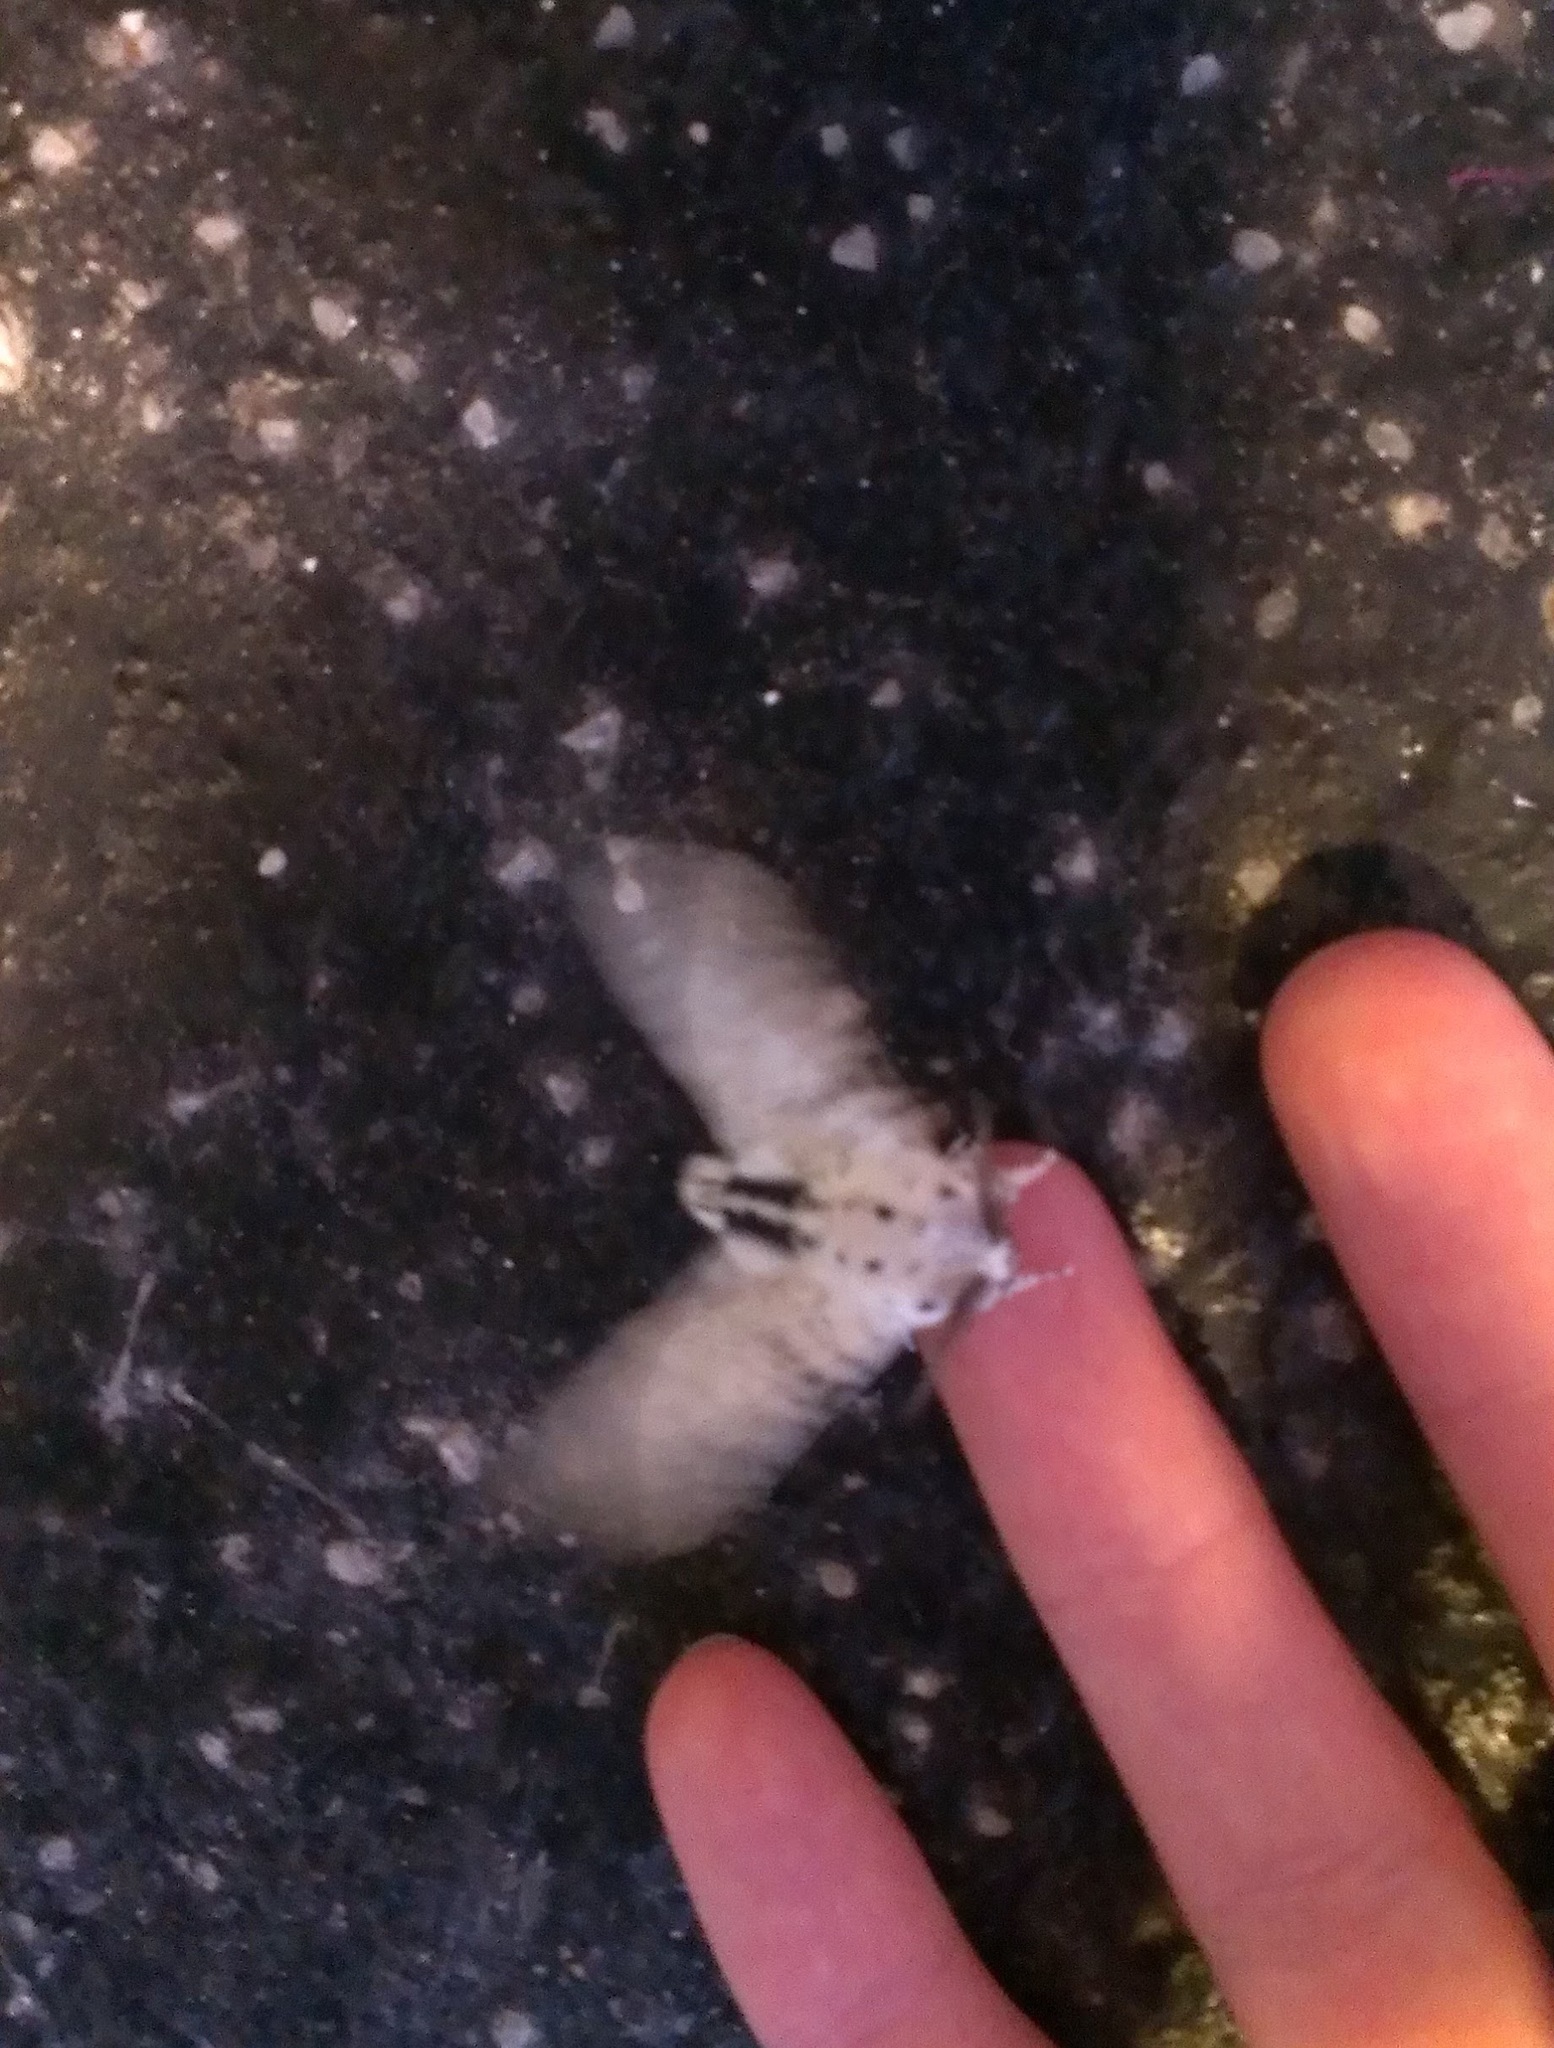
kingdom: Animalia
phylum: Arthropoda
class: Insecta
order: Lepidoptera
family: Cossidae
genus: Zeuzera
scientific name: Zeuzera pyrina
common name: Leopard moth
